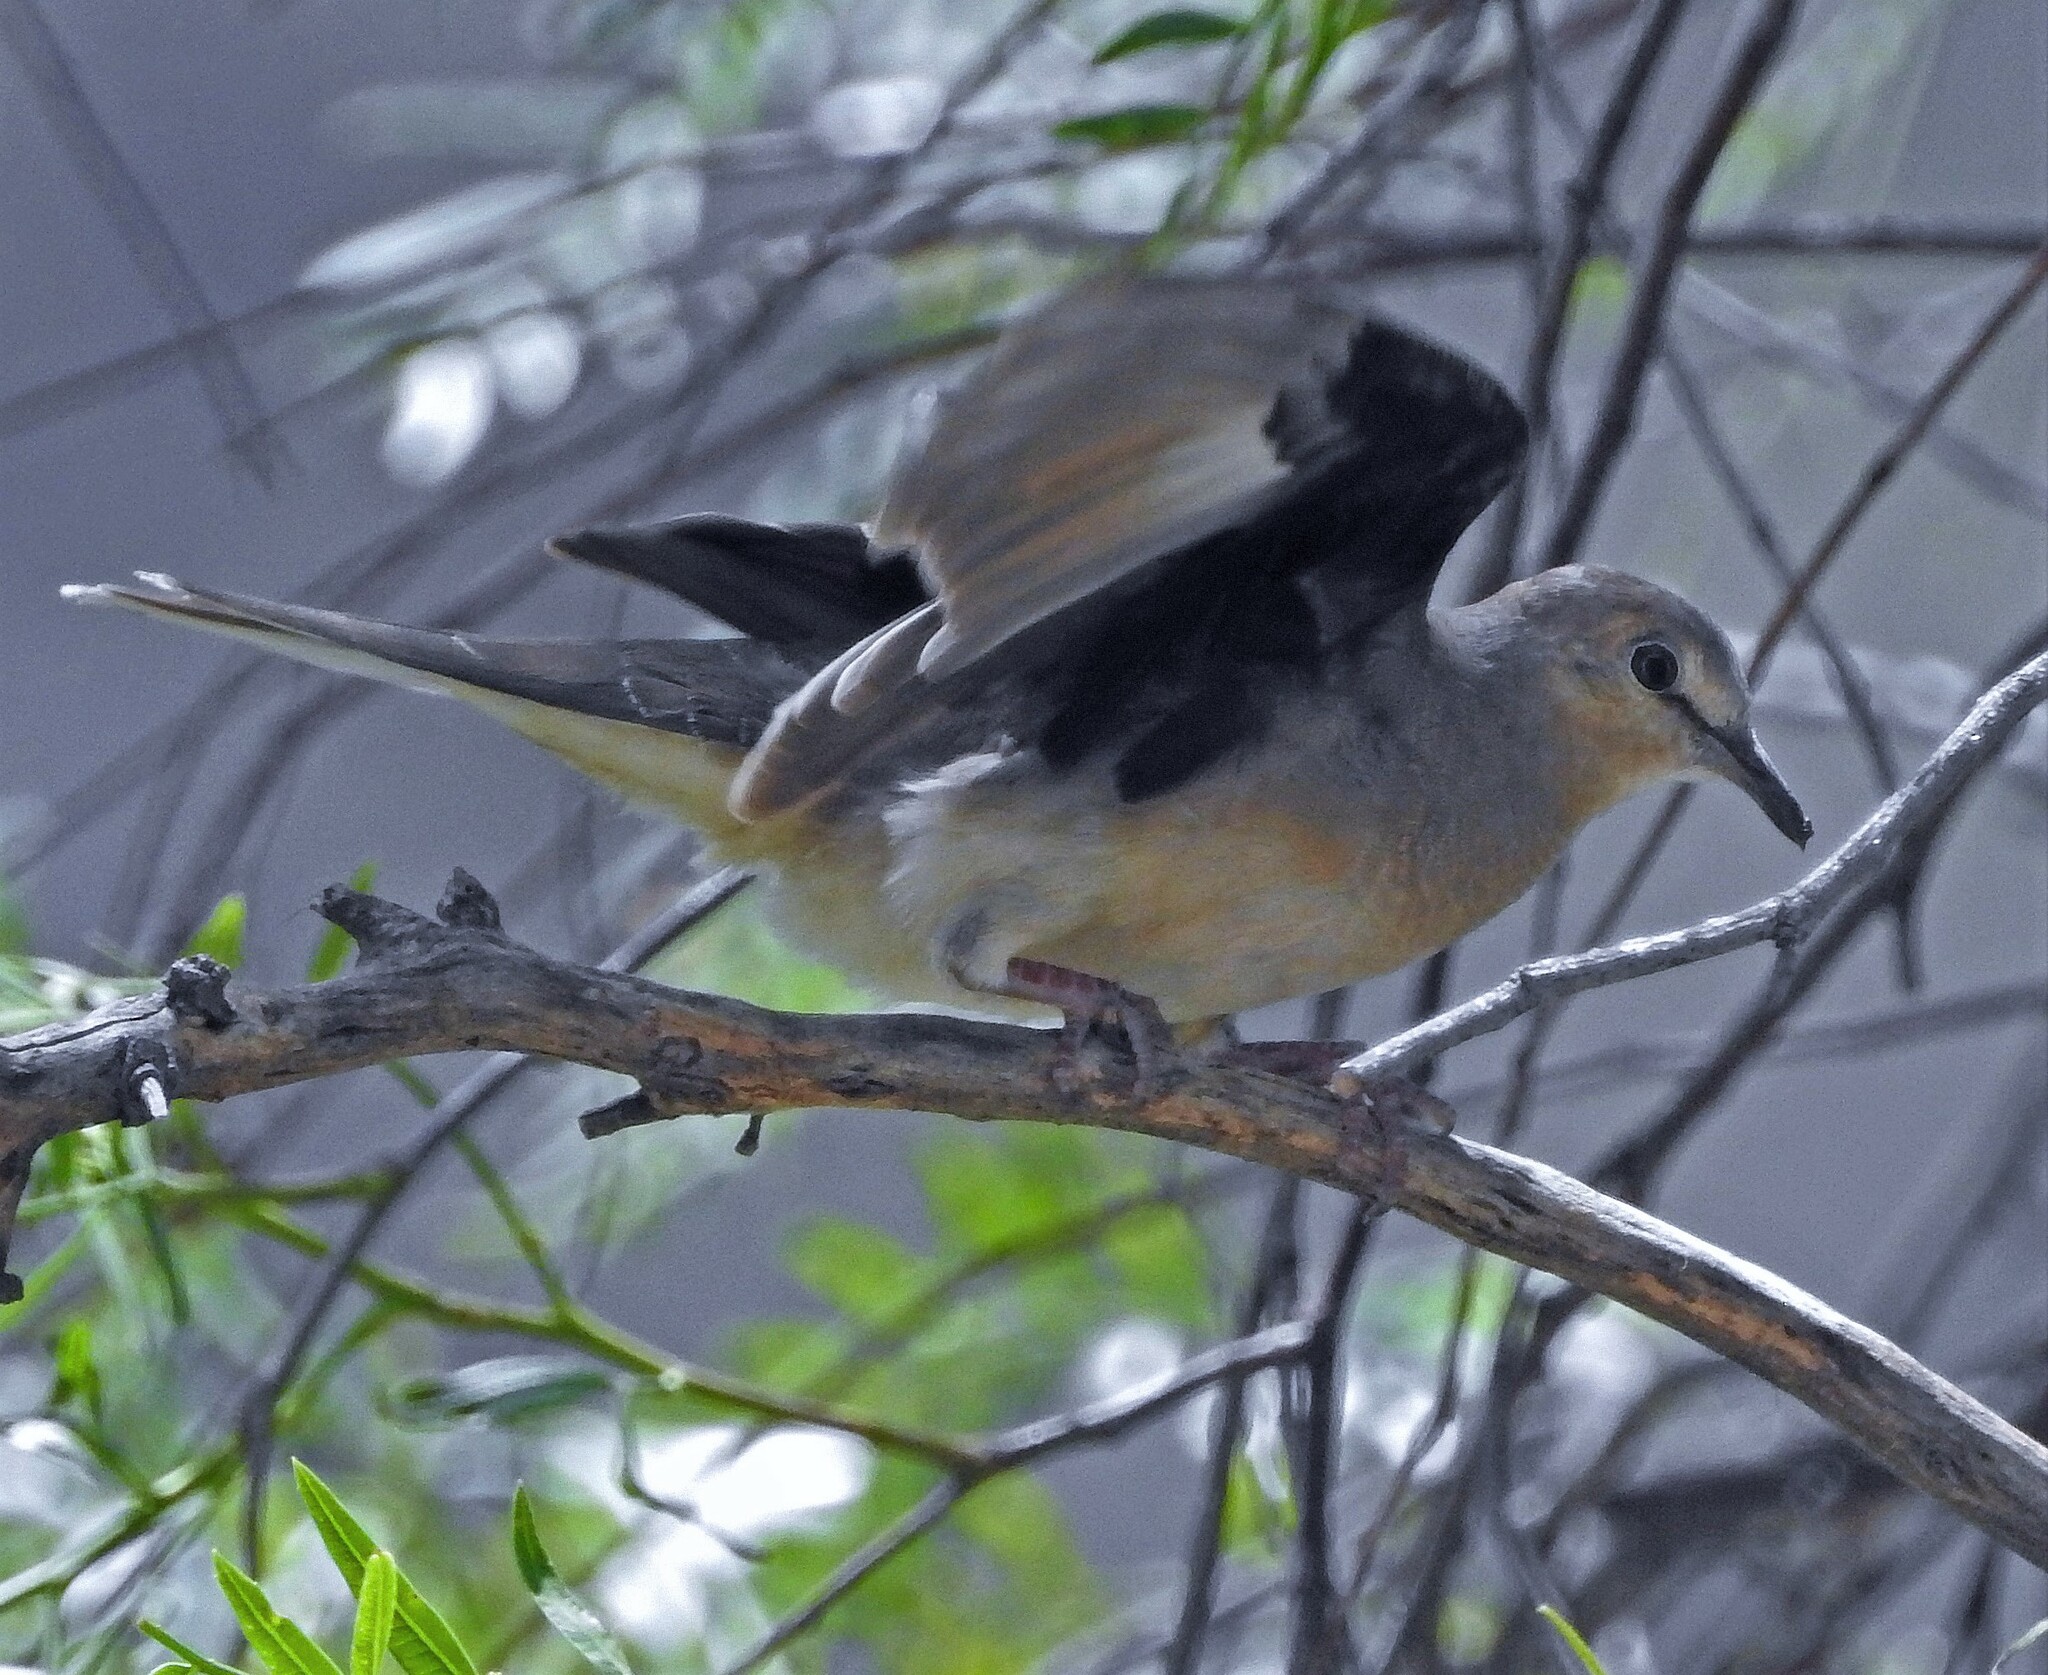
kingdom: Animalia
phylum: Chordata
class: Aves
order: Columbiformes
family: Columbidae
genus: Columbina
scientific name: Columbina picui
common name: Picui ground dove
